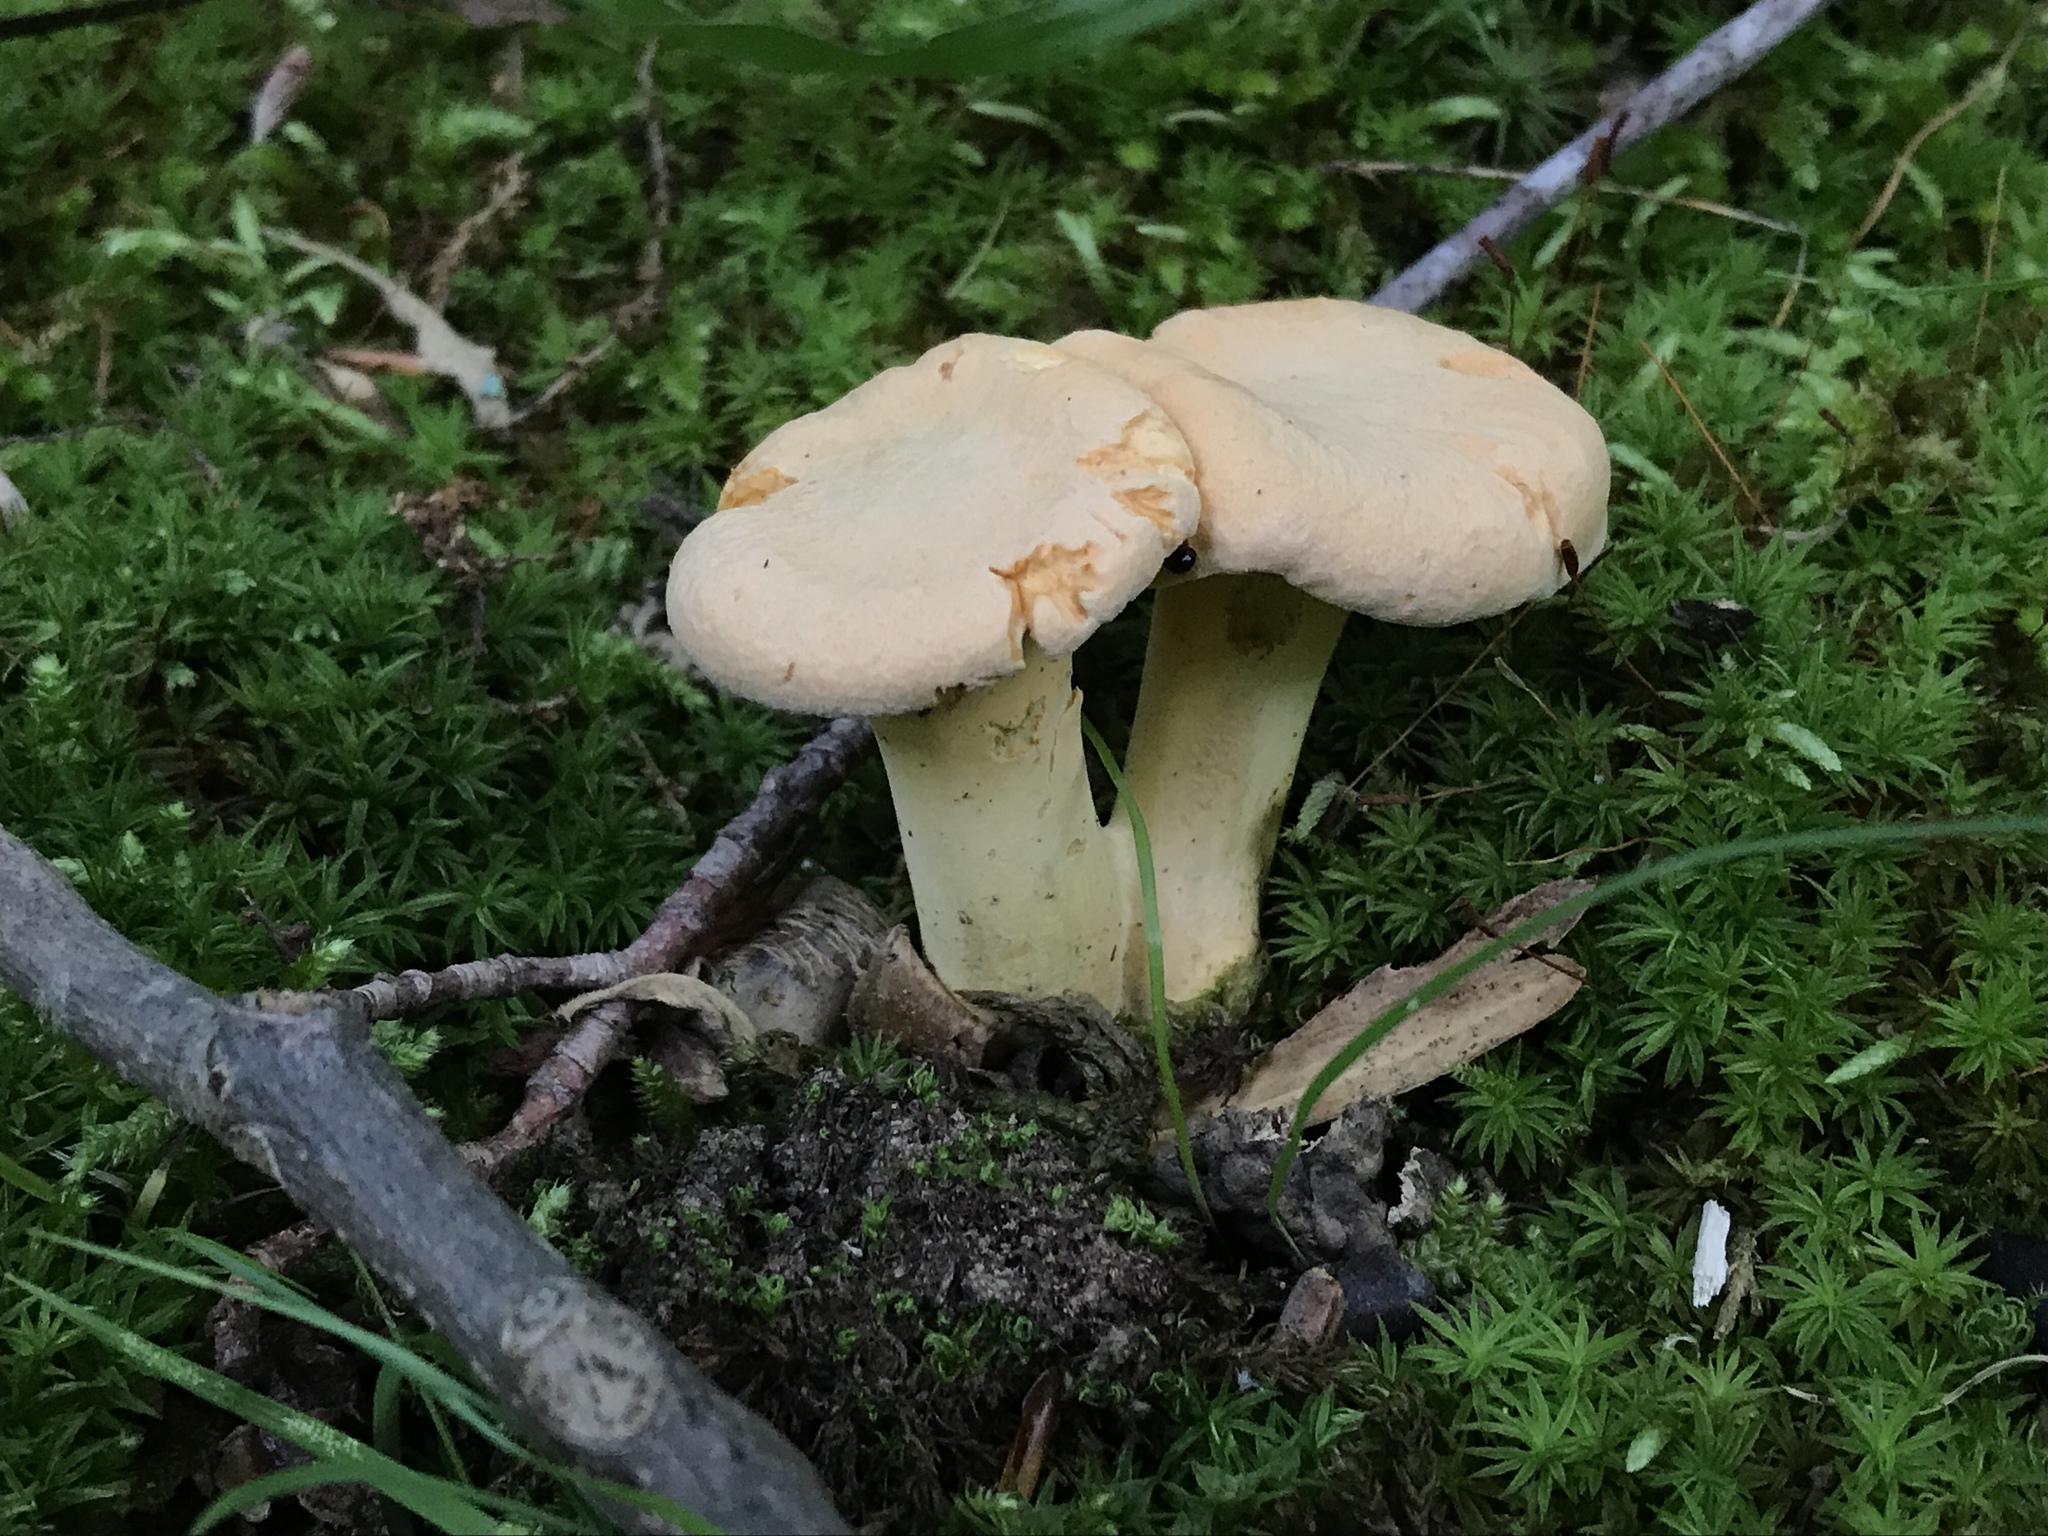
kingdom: Fungi
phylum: Basidiomycota
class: Agaricomycetes
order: Cantharellales
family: Hydnaceae
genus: Cantharellus
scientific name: Cantharellus flavolateritius
